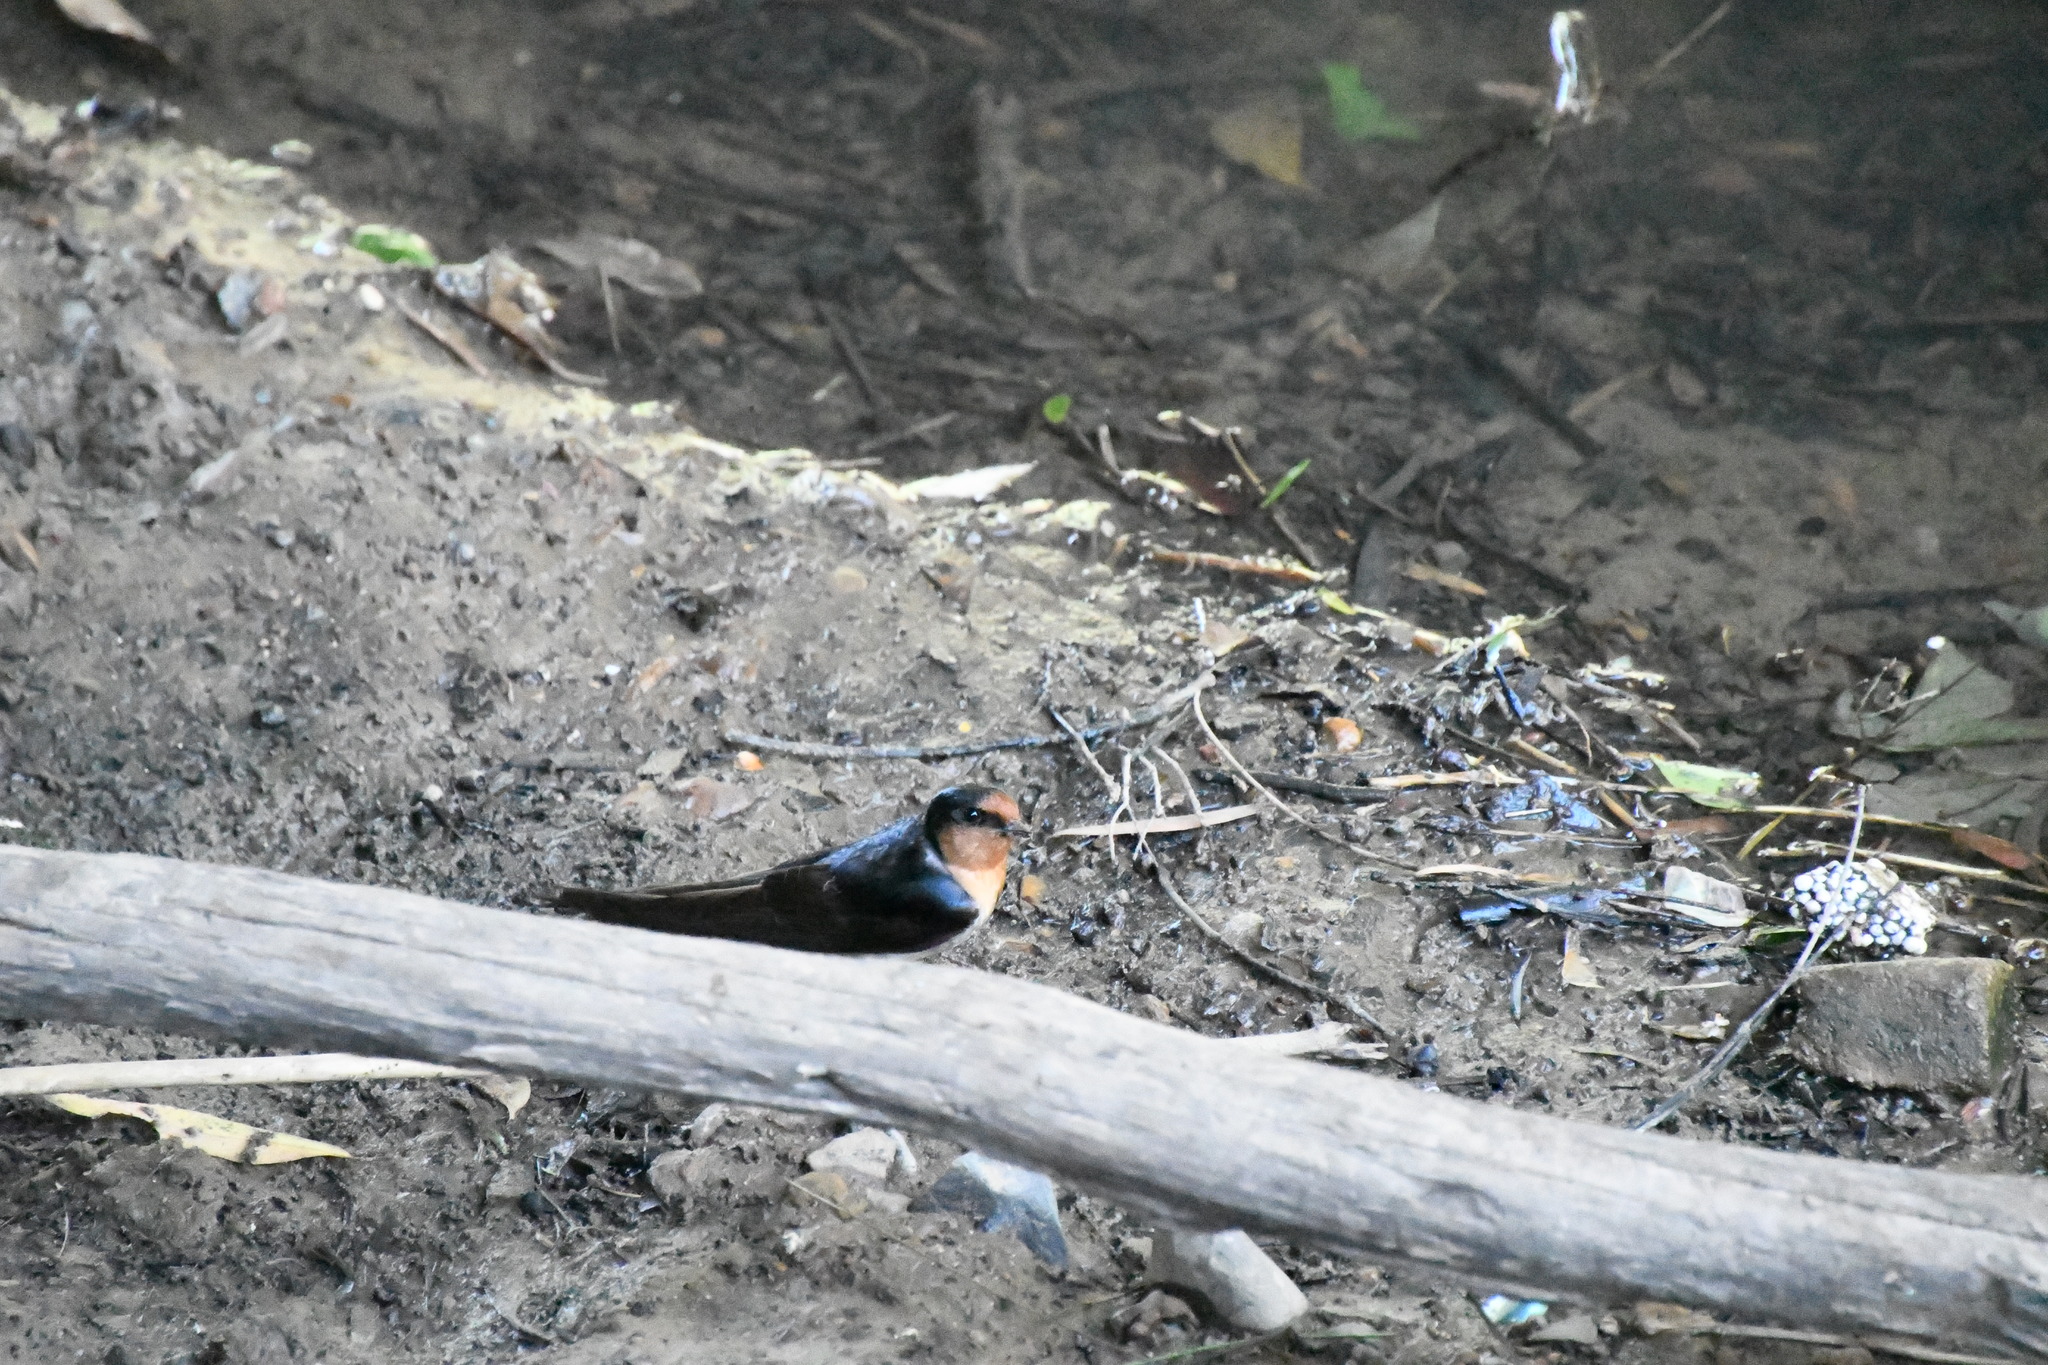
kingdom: Animalia
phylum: Chordata
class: Aves
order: Passeriformes
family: Hirundinidae
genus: Hirundo
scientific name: Hirundo neoxena
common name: Welcome swallow
